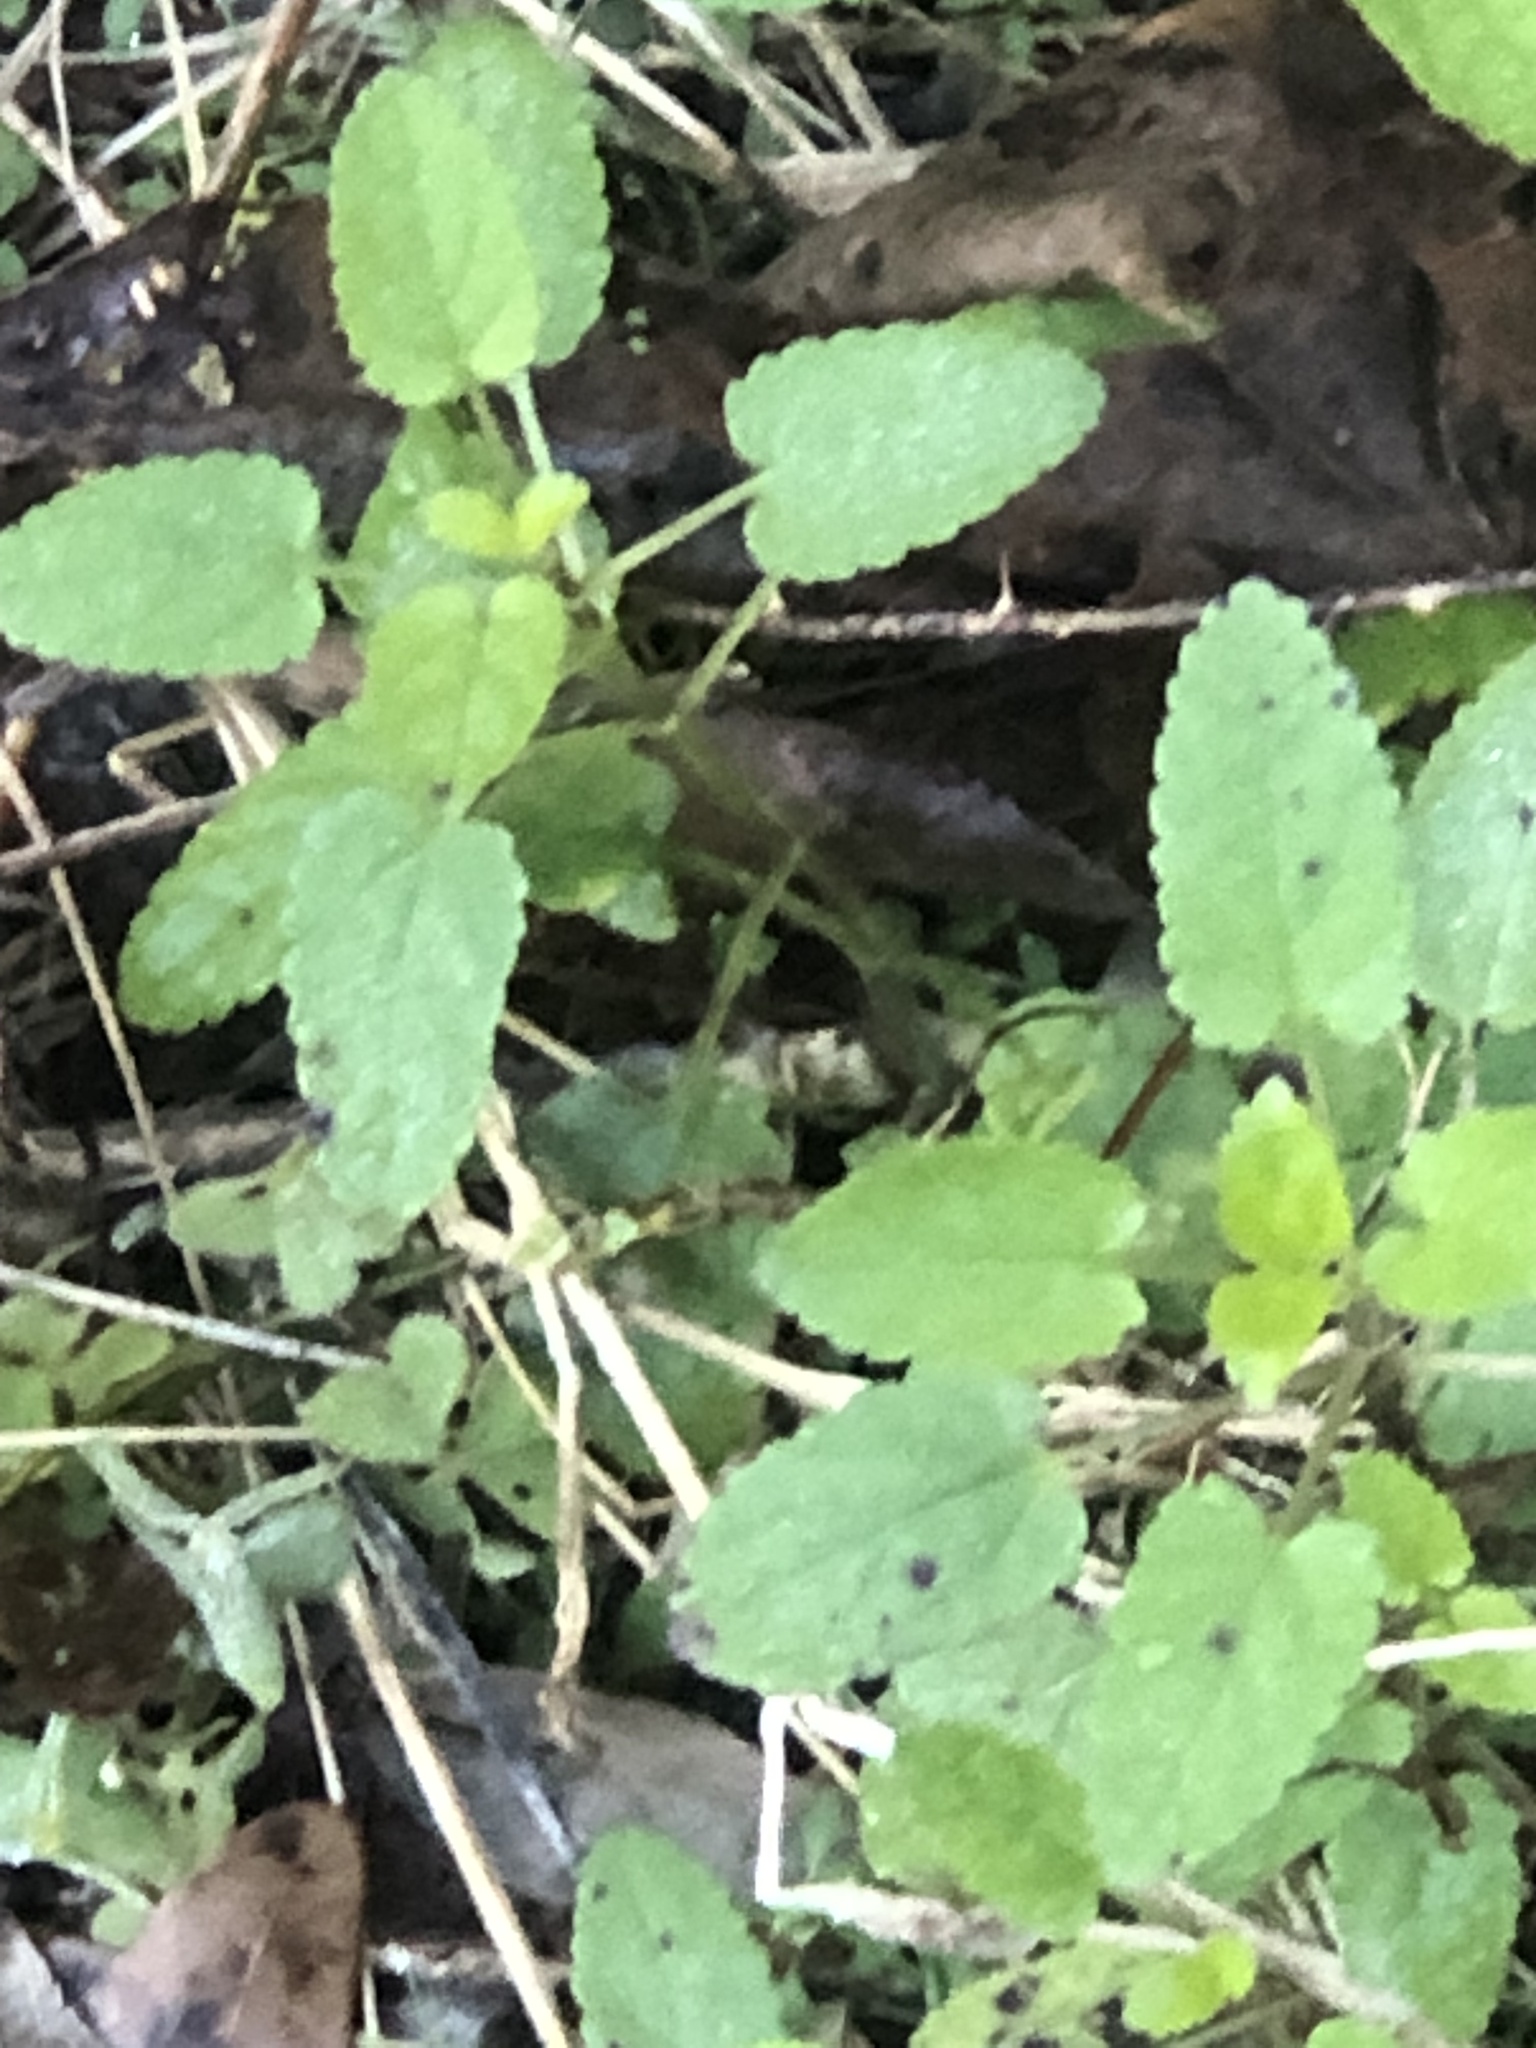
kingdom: Plantae
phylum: Tracheophyta
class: Magnoliopsida
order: Lamiales
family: Lamiaceae
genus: Stachys
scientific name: Stachys floridana
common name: Florida betony
